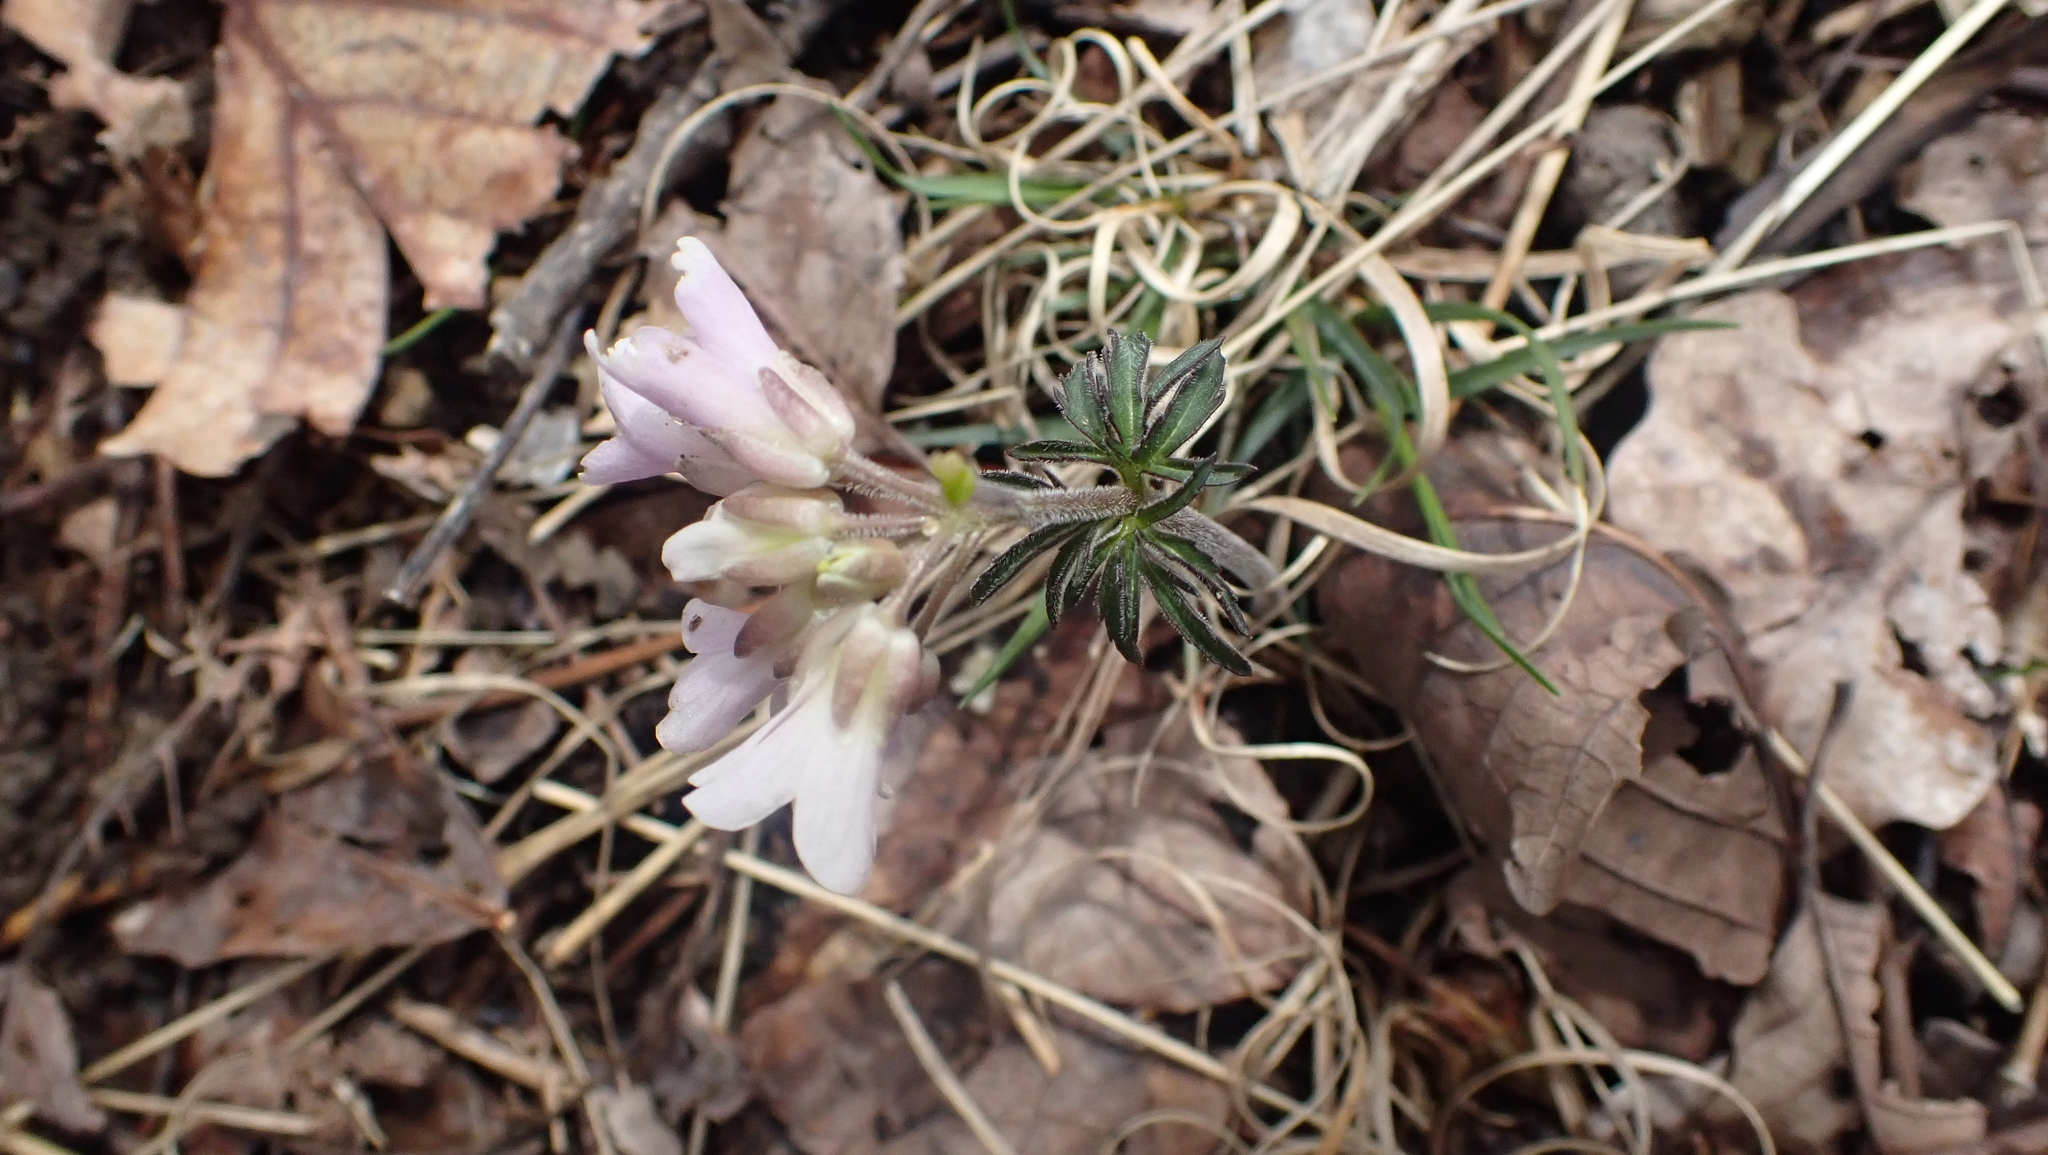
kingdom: Plantae
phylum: Tracheophyta
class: Magnoliopsida
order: Brassicales
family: Brassicaceae
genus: Cardamine
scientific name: Cardamine concatenata
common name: Cut-leaf toothcup
